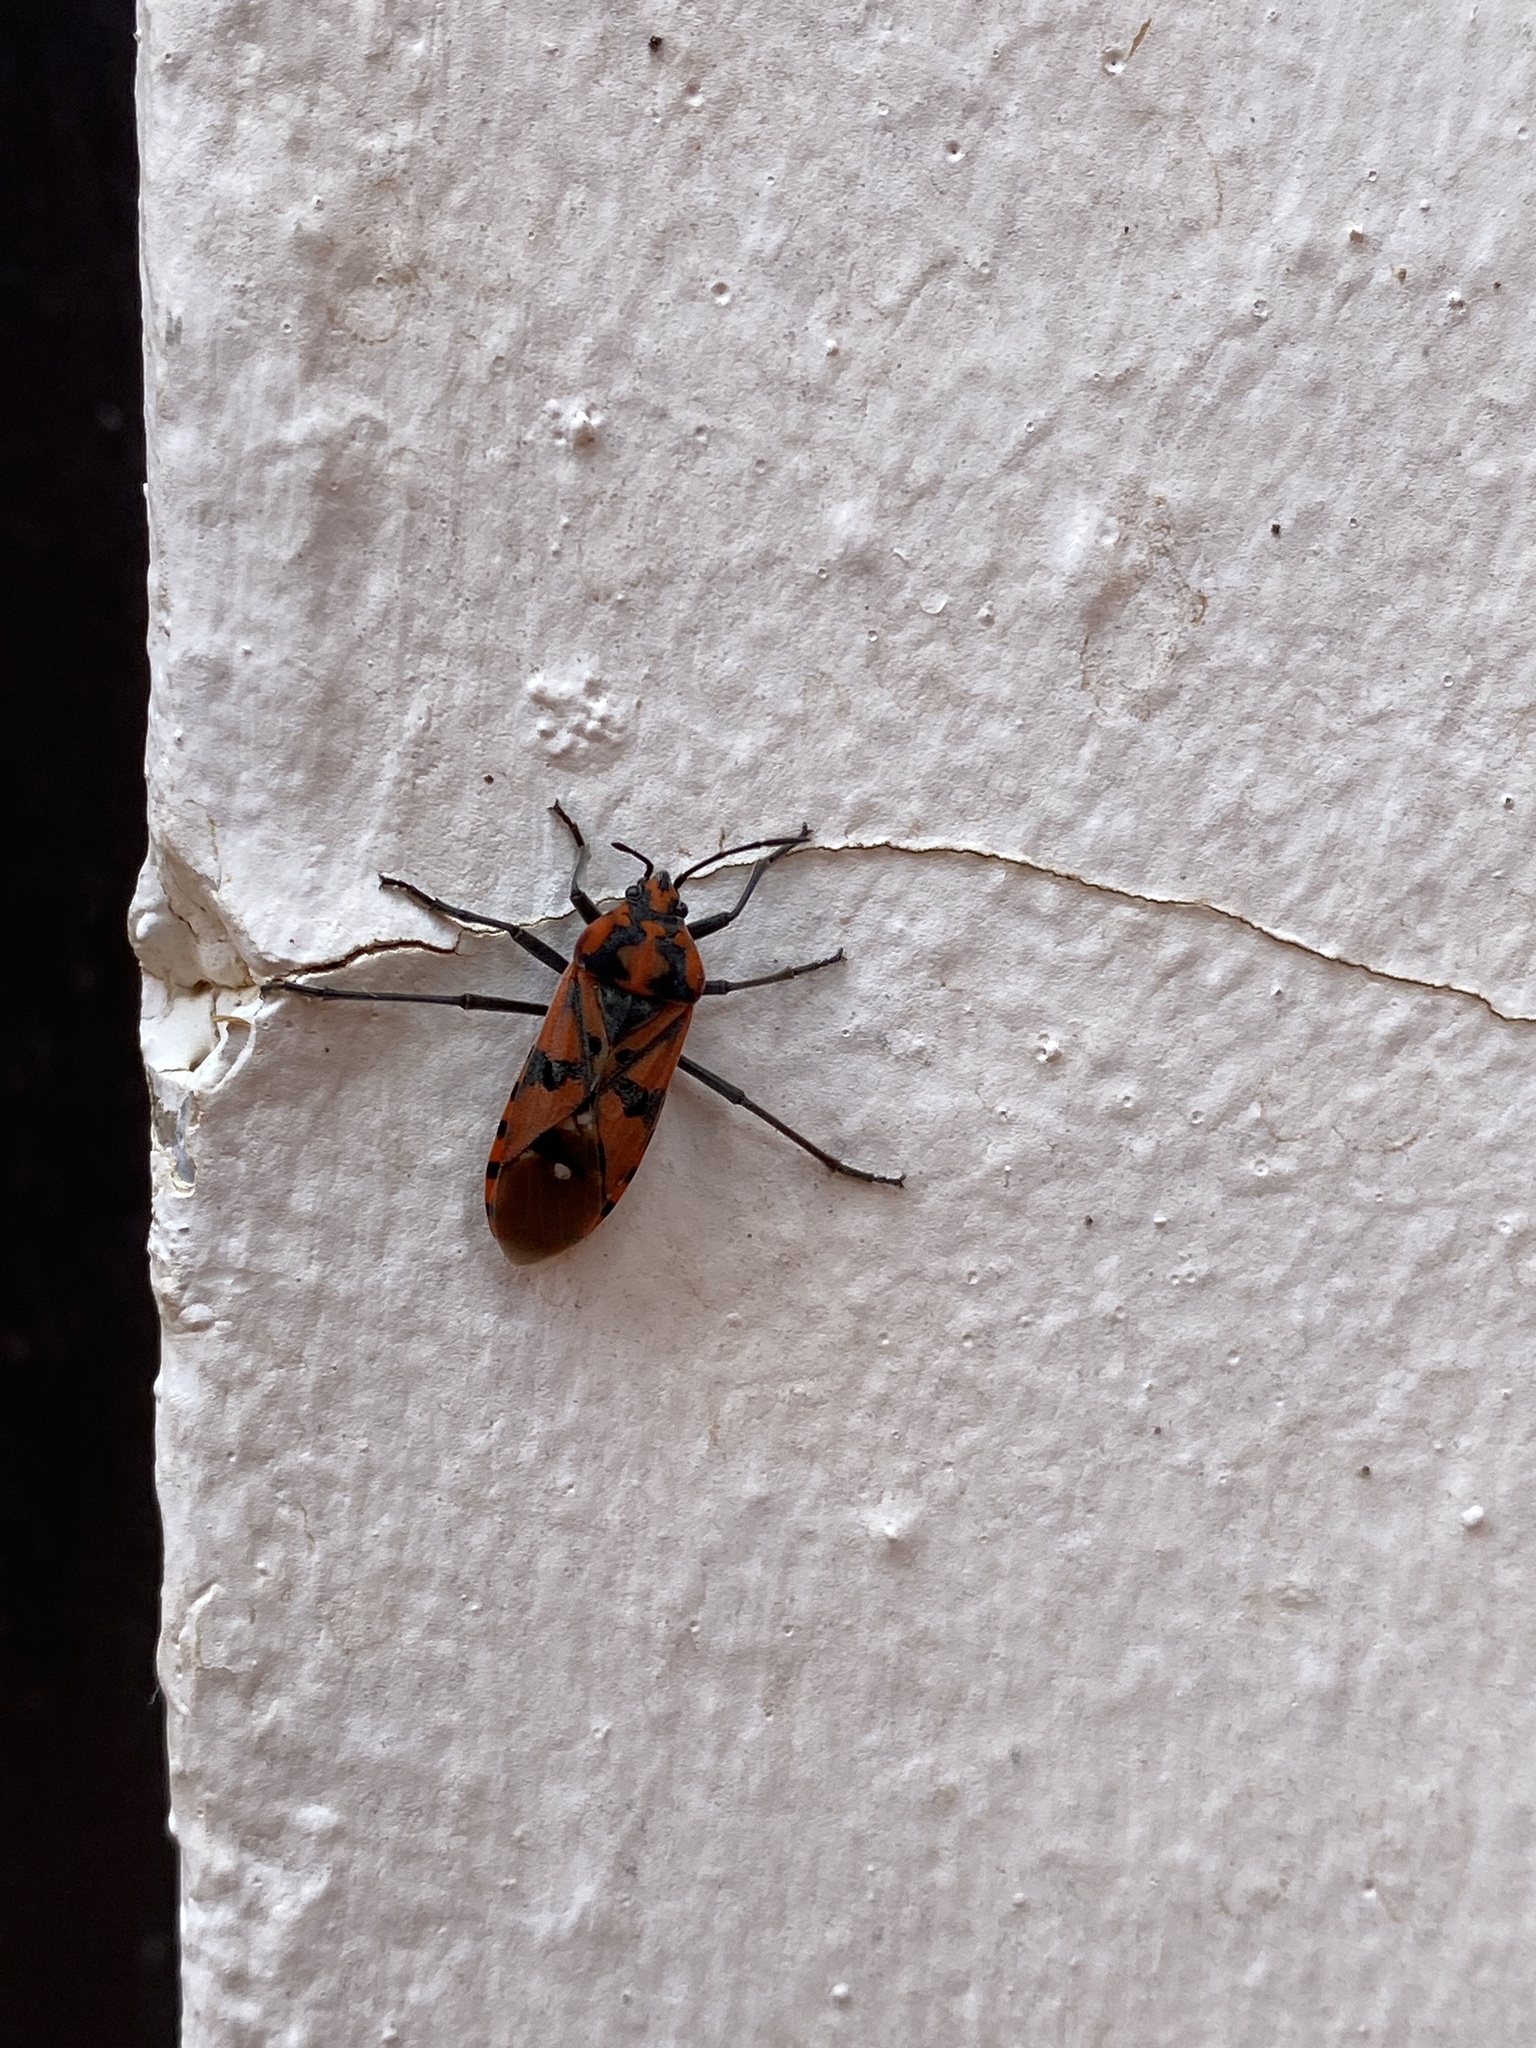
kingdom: Animalia
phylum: Arthropoda
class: Insecta
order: Hemiptera
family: Lygaeidae
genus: Spilostethus
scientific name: Spilostethus pandurus
